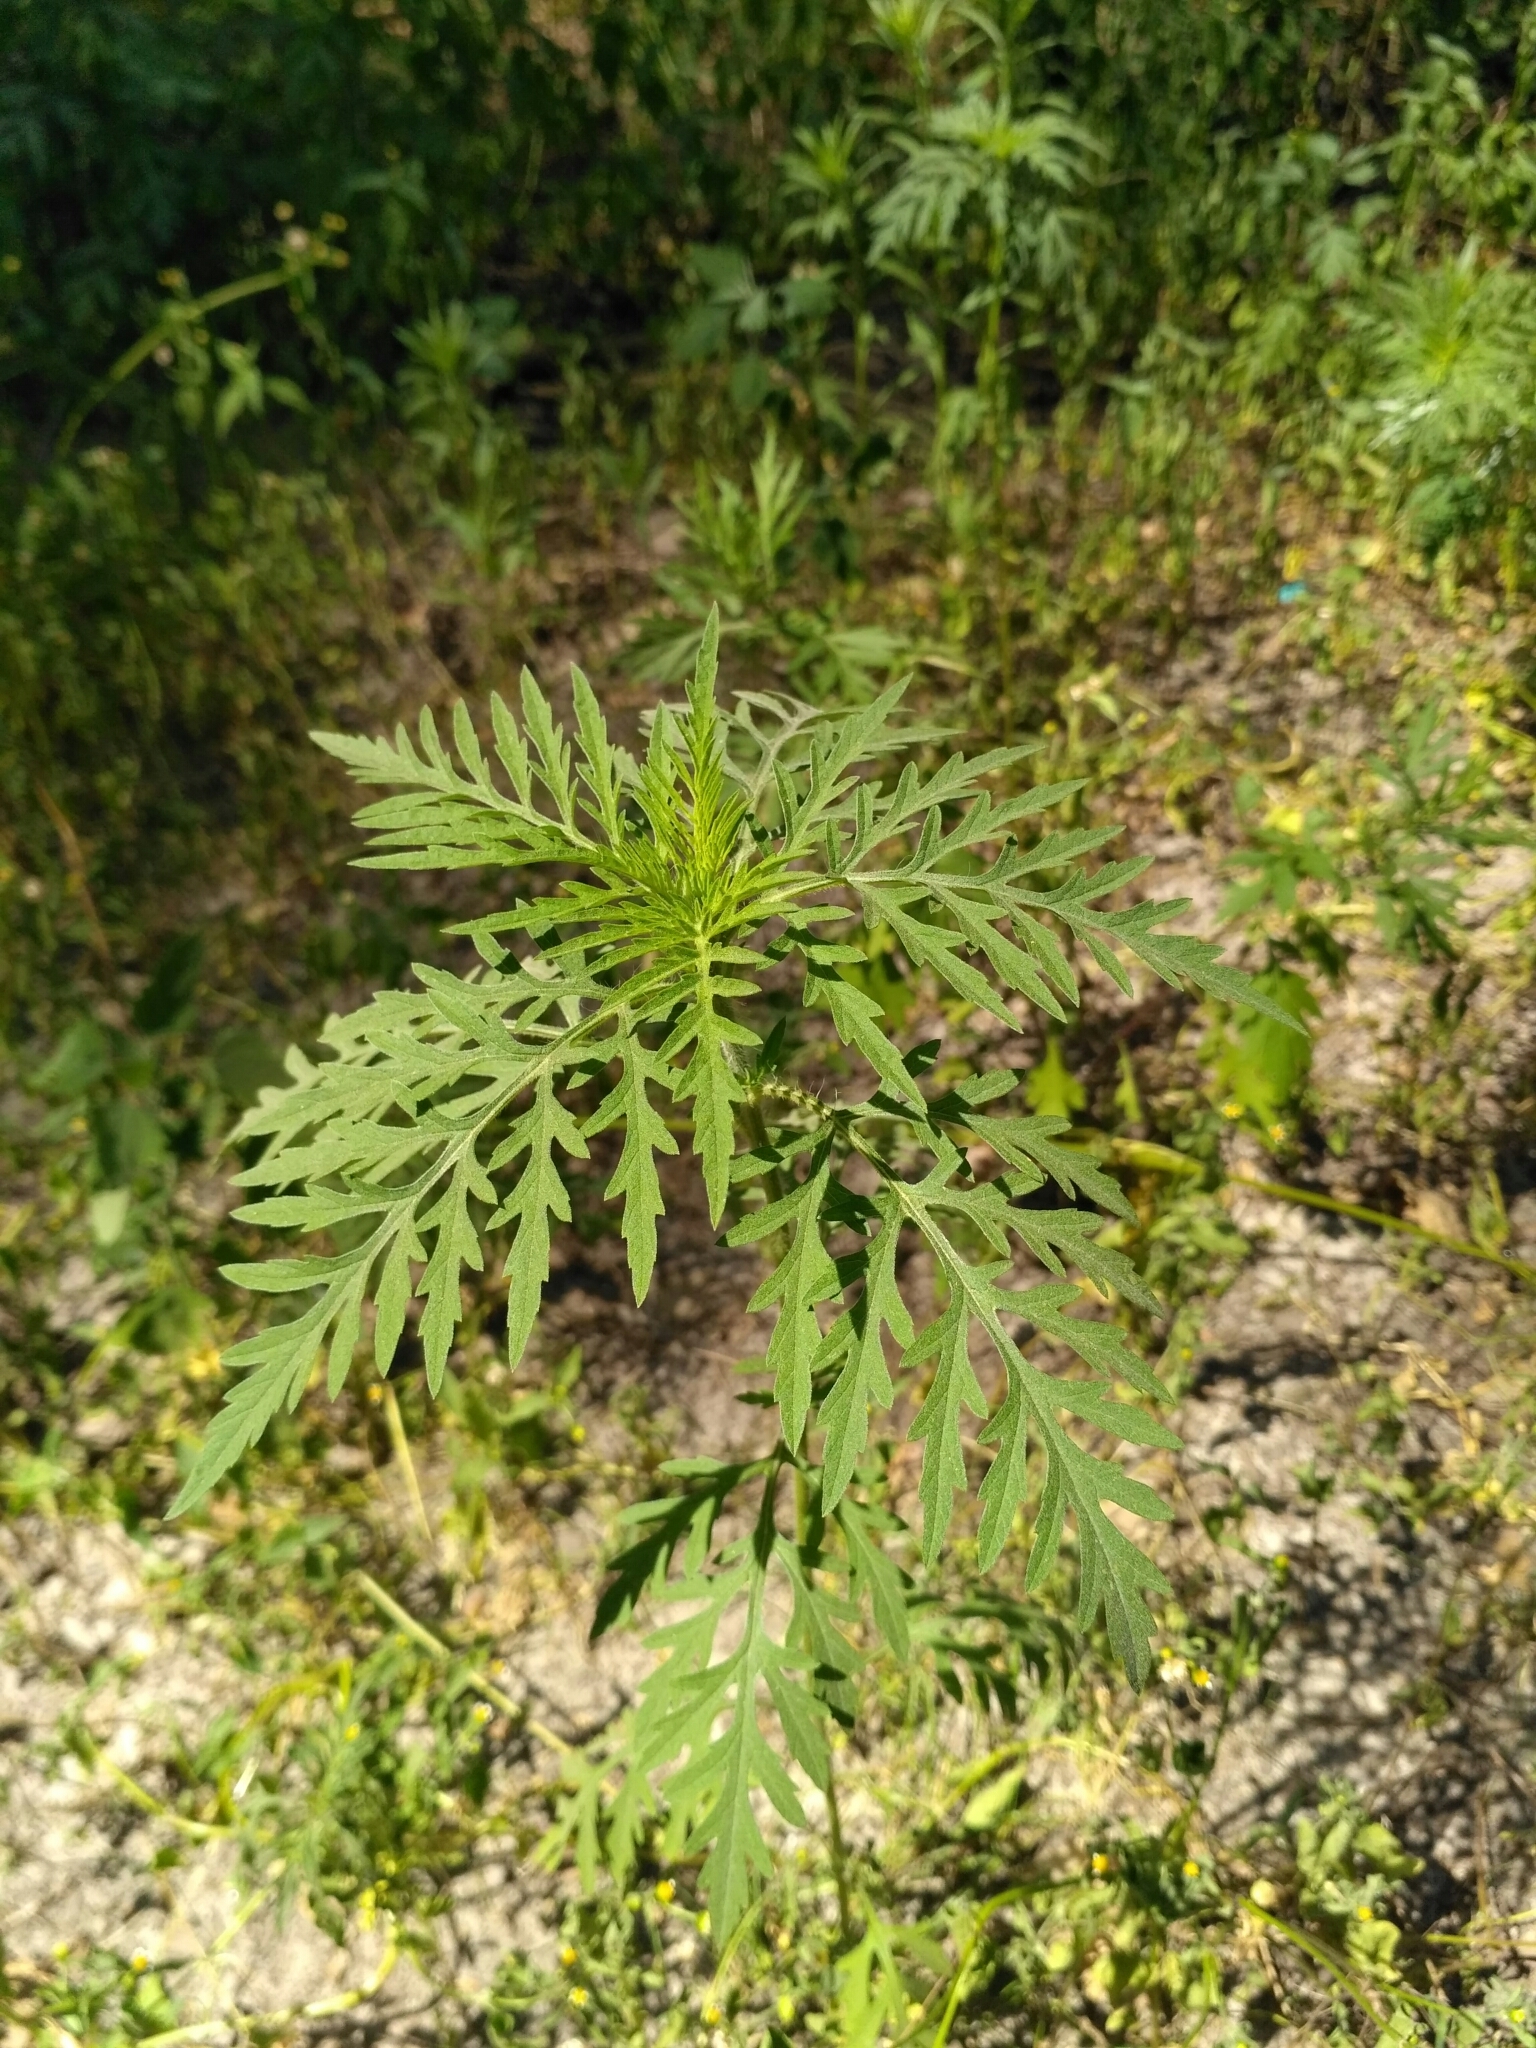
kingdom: Plantae
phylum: Tracheophyta
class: Magnoliopsida
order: Asterales
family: Asteraceae
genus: Ambrosia
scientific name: Ambrosia artemisiifolia
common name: Annual ragweed
